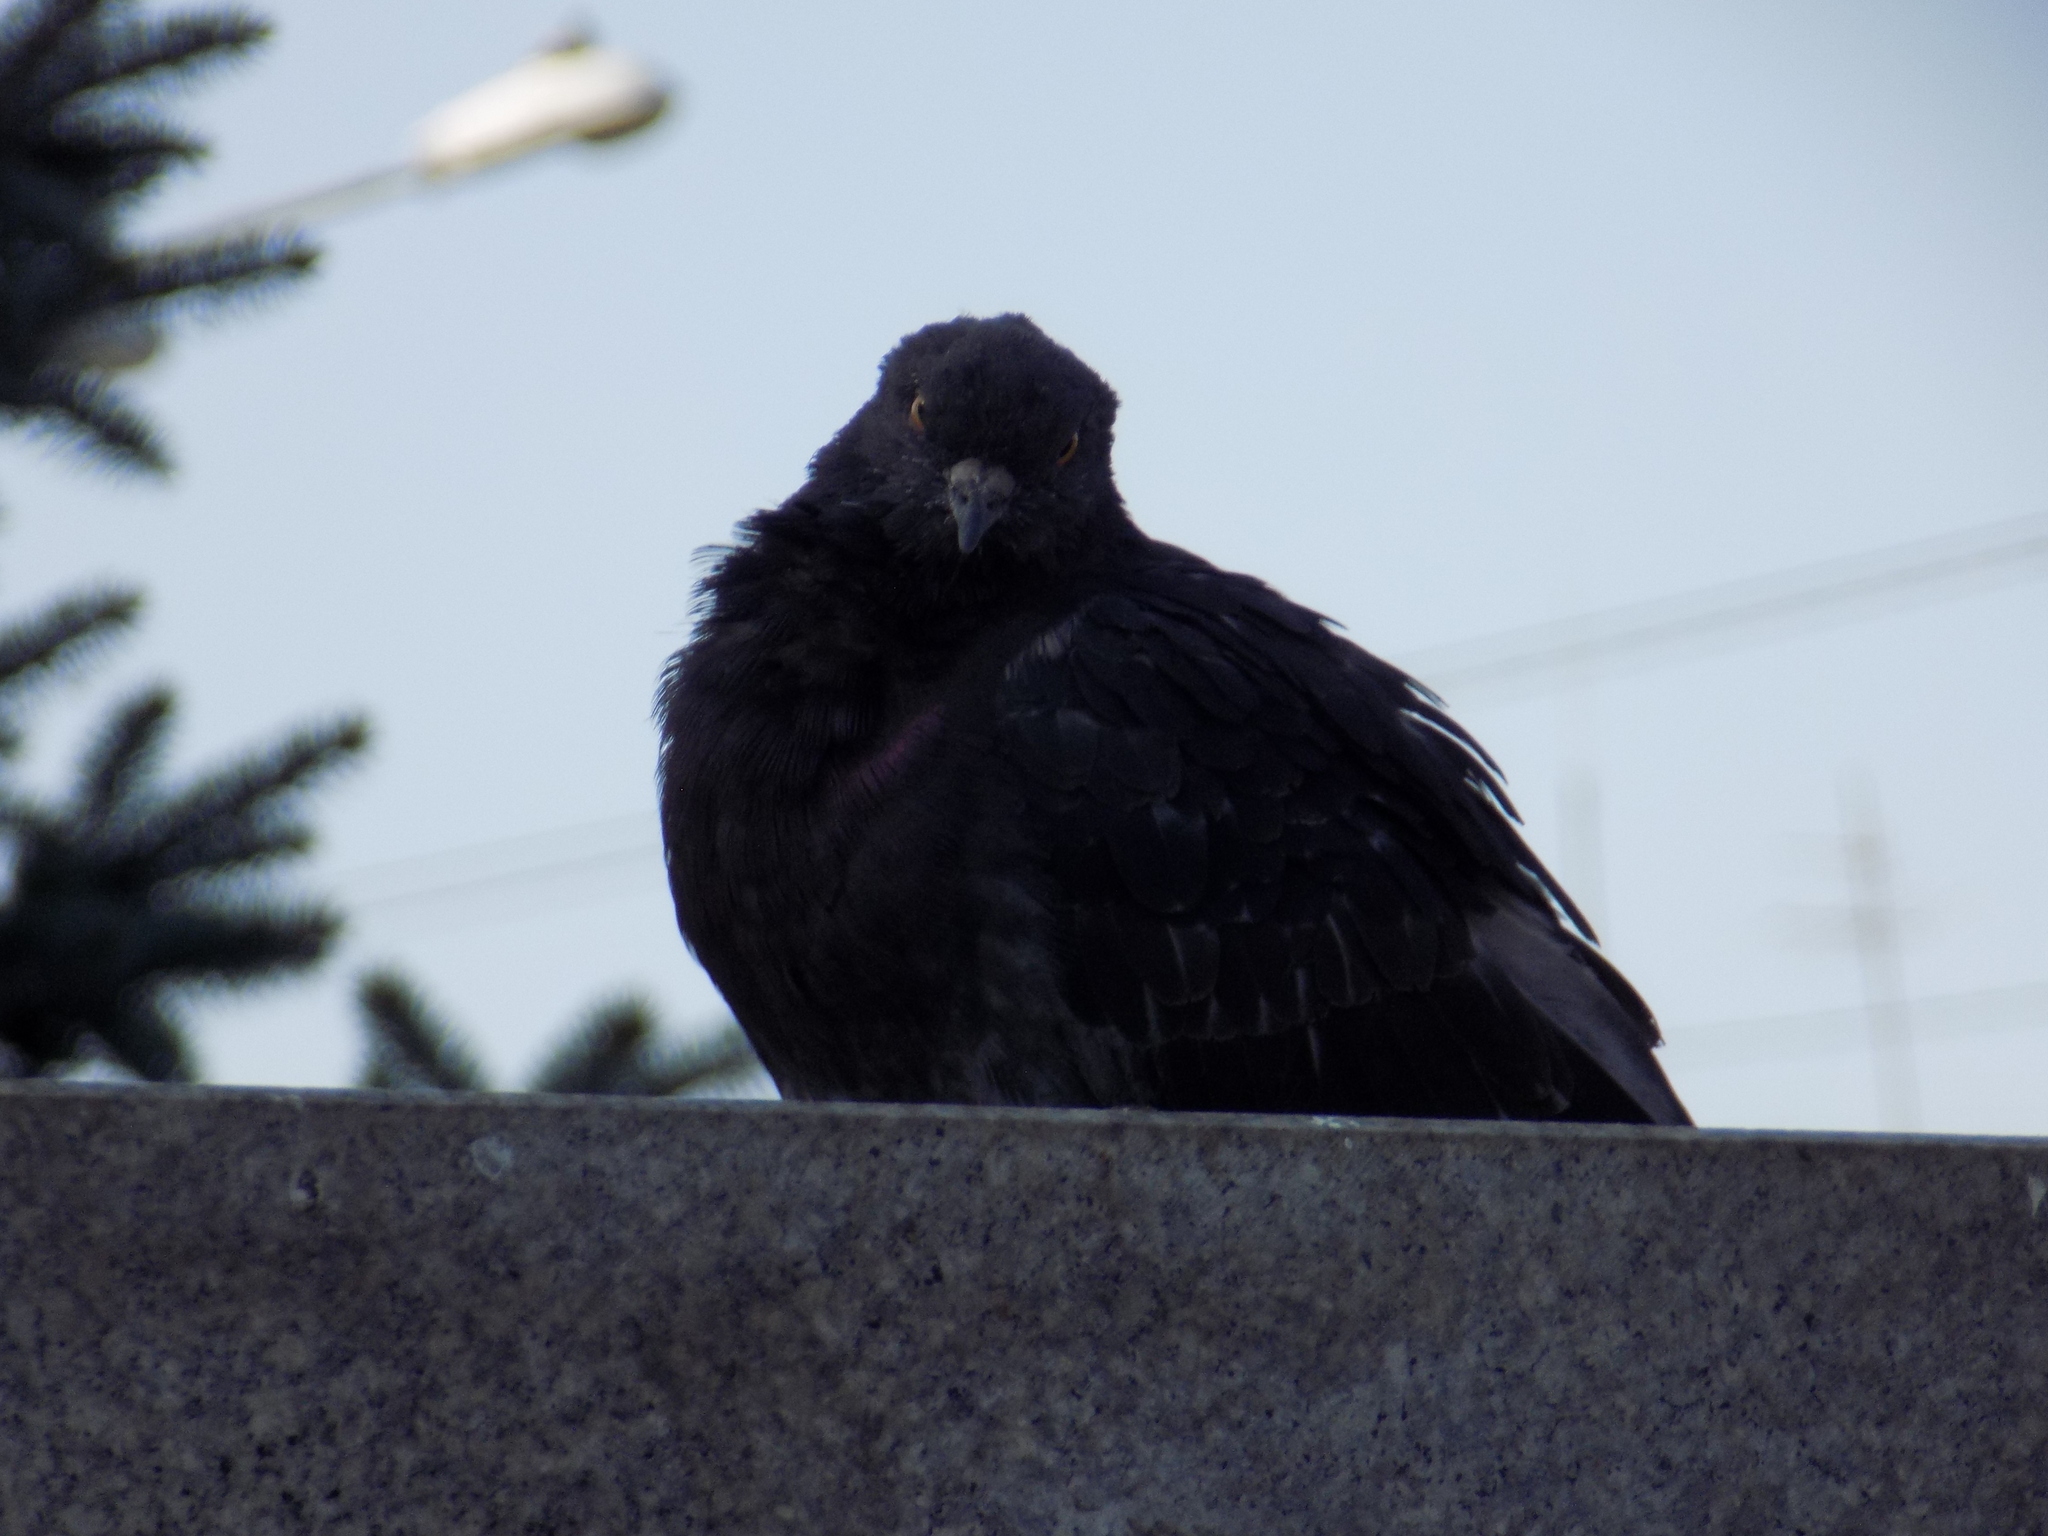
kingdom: Animalia
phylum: Chordata
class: Aves
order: Columbiformes
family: Columbidae
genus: Columba
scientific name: Columba livia
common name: Rock pigeon
